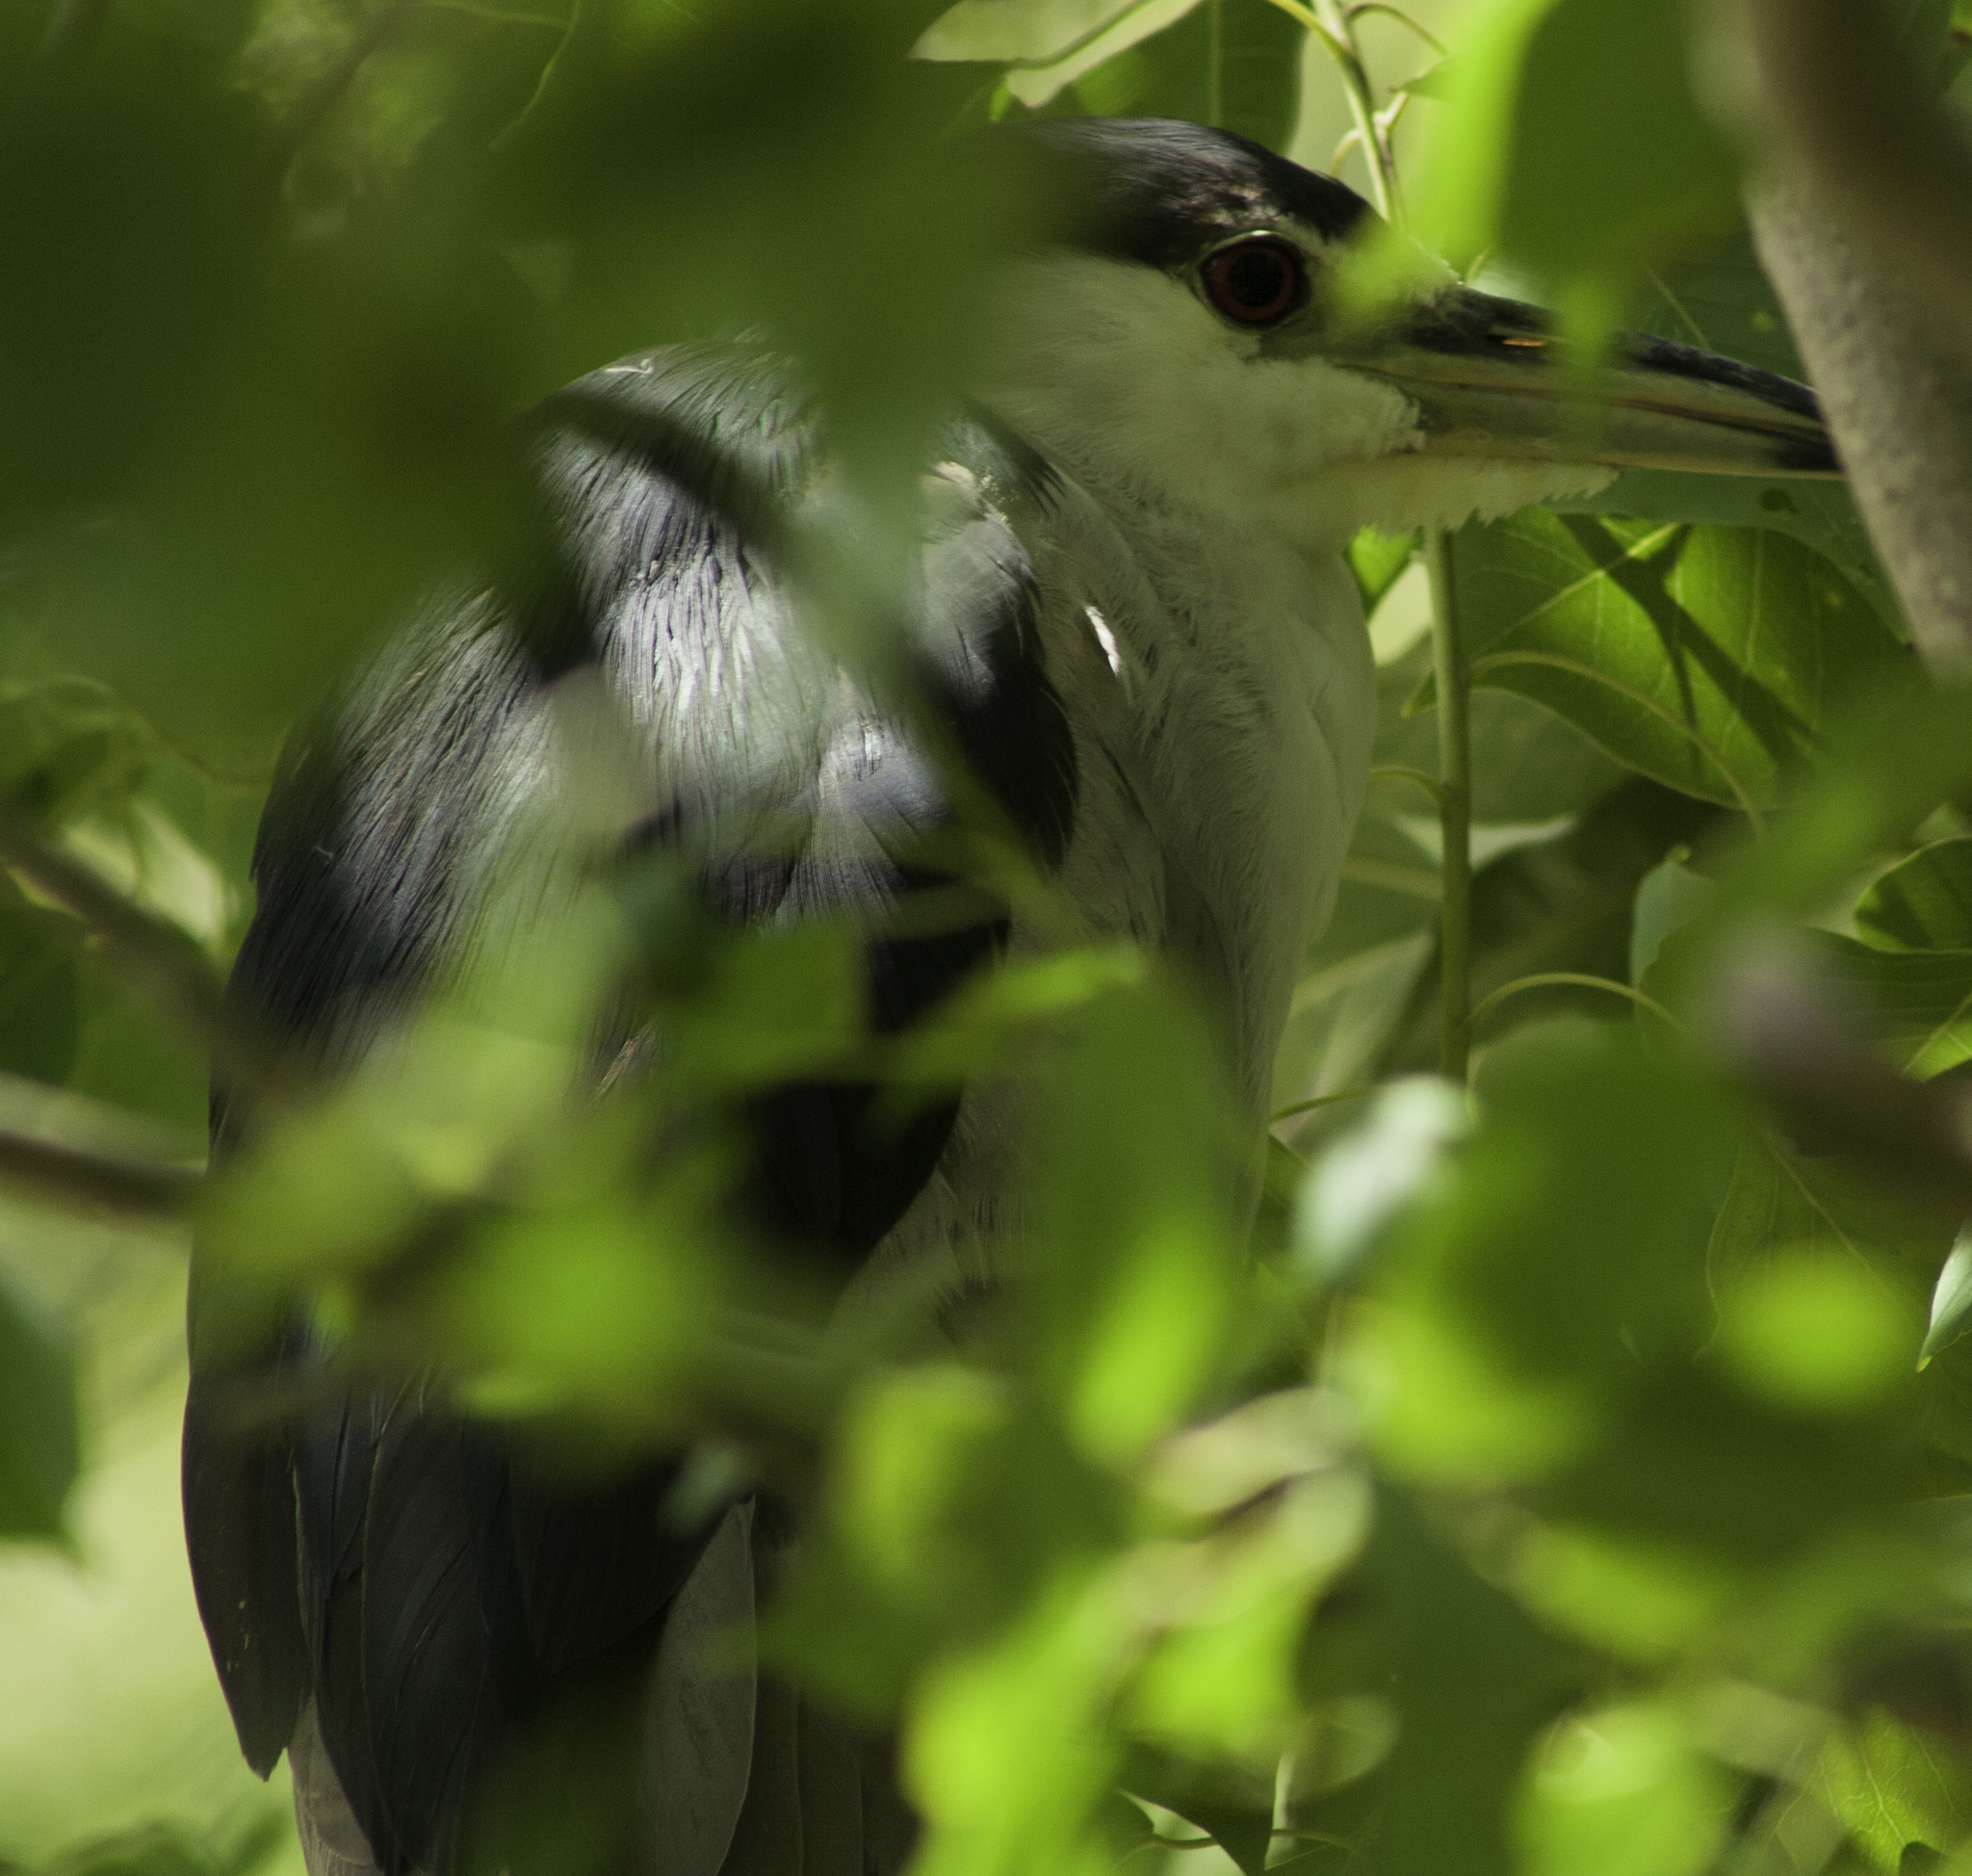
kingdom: Animalia
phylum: Chordata
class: Aves
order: Pelecaniformes
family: Ardeidae
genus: Nycticorax
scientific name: Nycticorax nycticorax
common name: Black-crowned night heron
